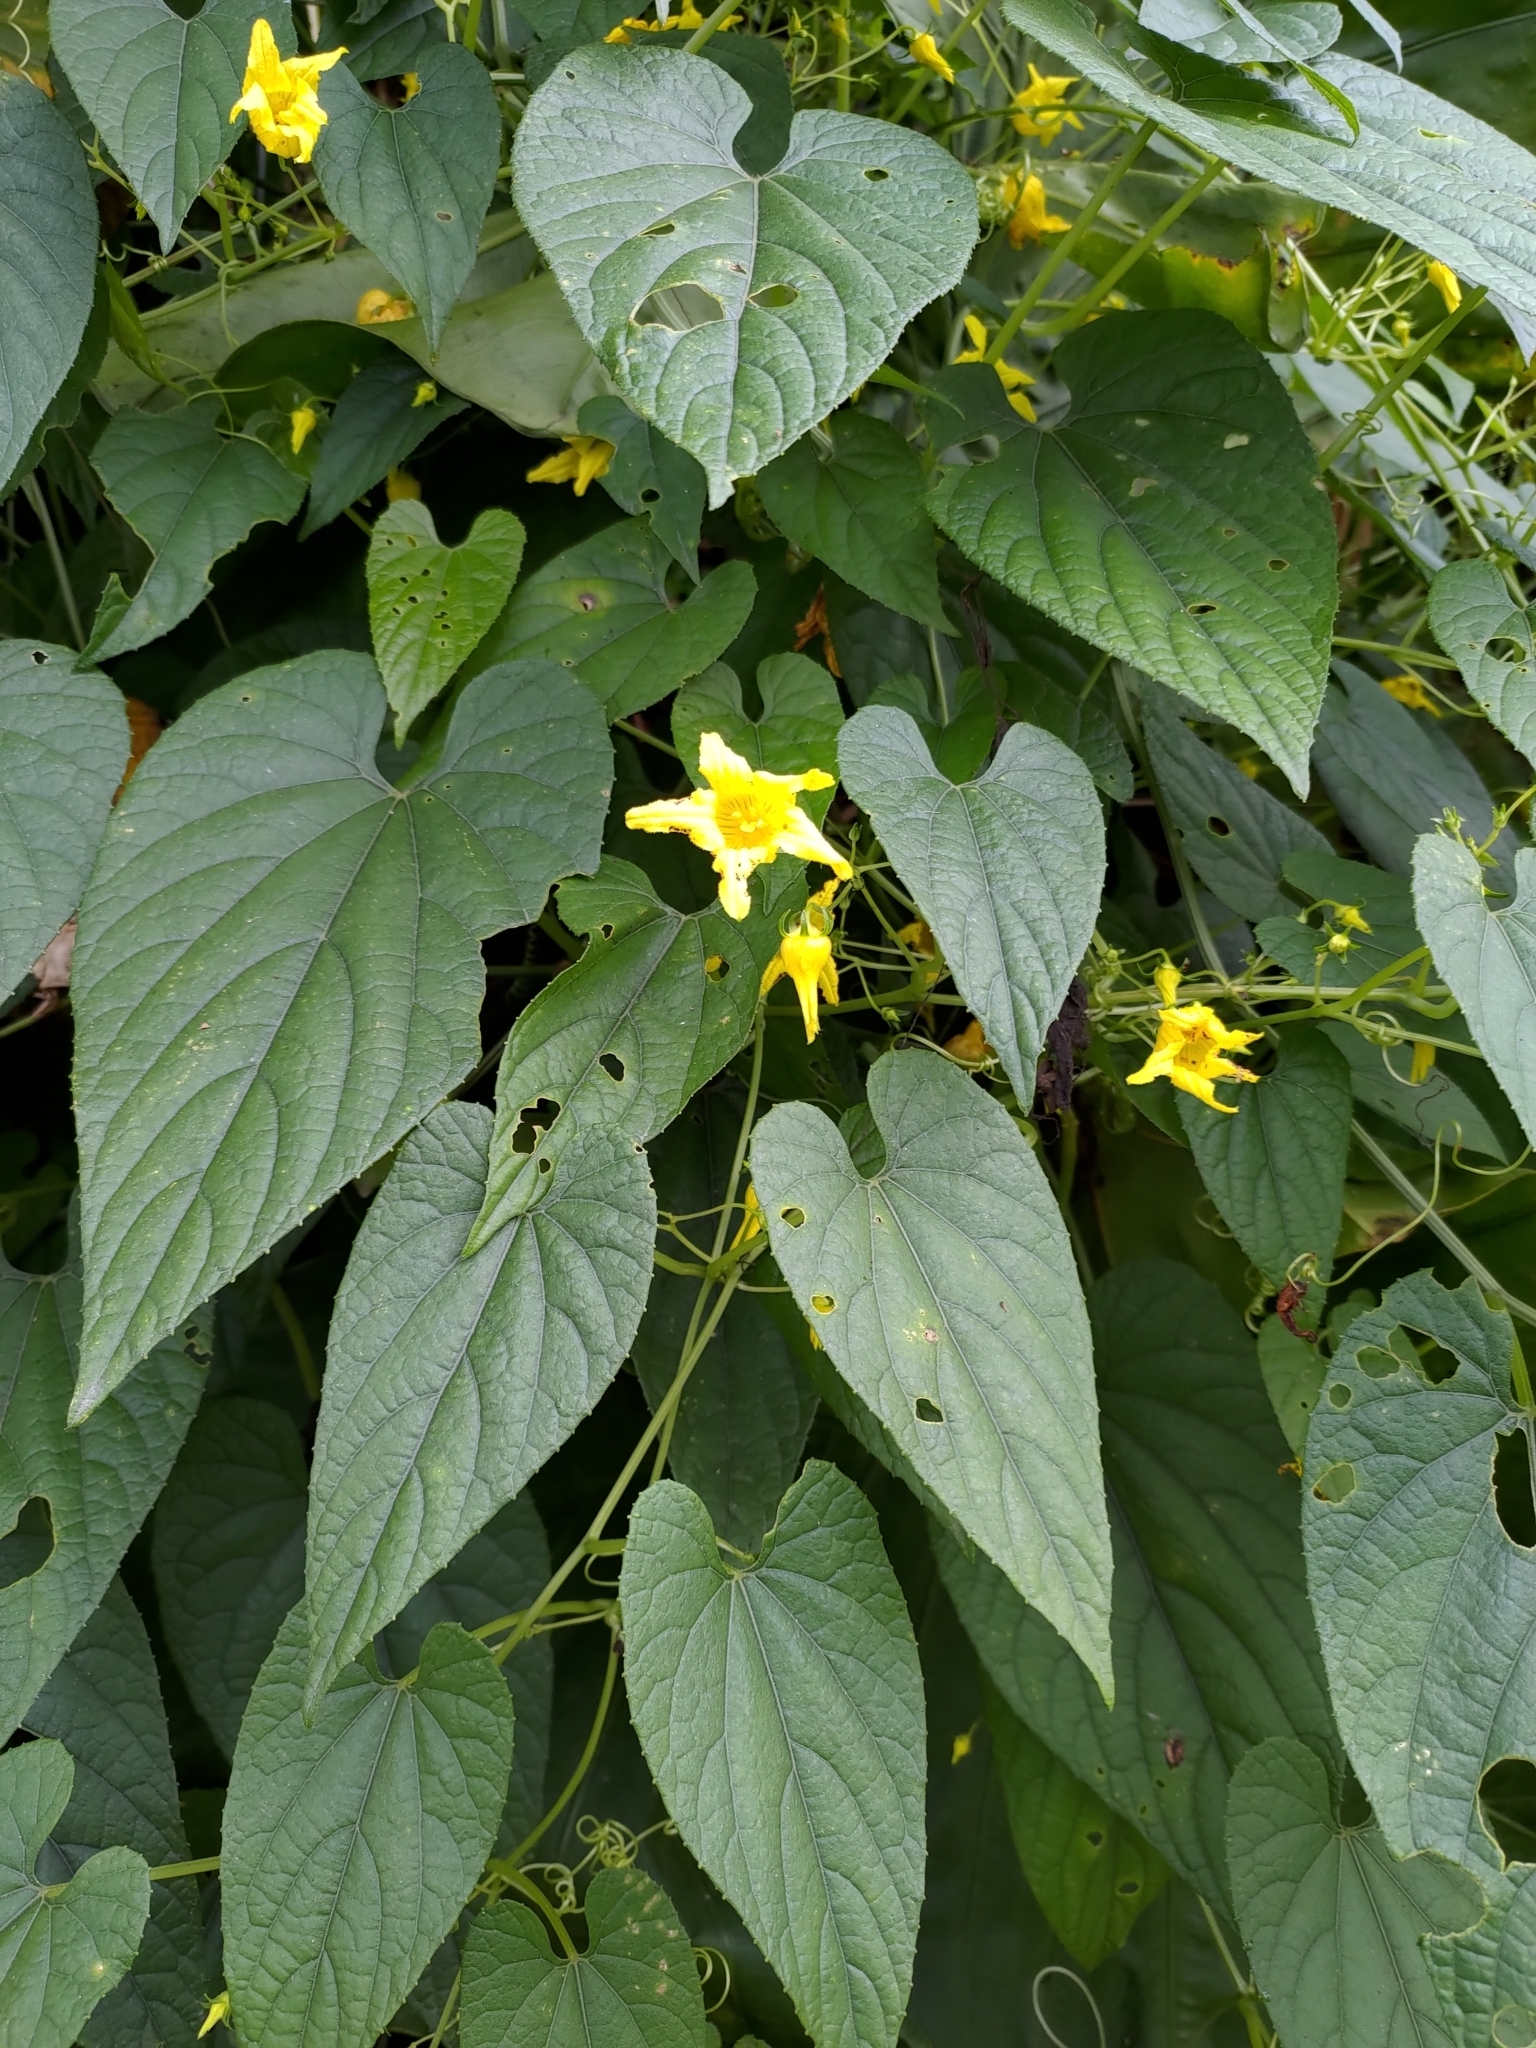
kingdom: Plantae
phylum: Tracheophyta
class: Magnoliopsida
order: Cucurbitales
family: Cucurbitaceae
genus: Thladiantha
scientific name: Thladiantha punctata
